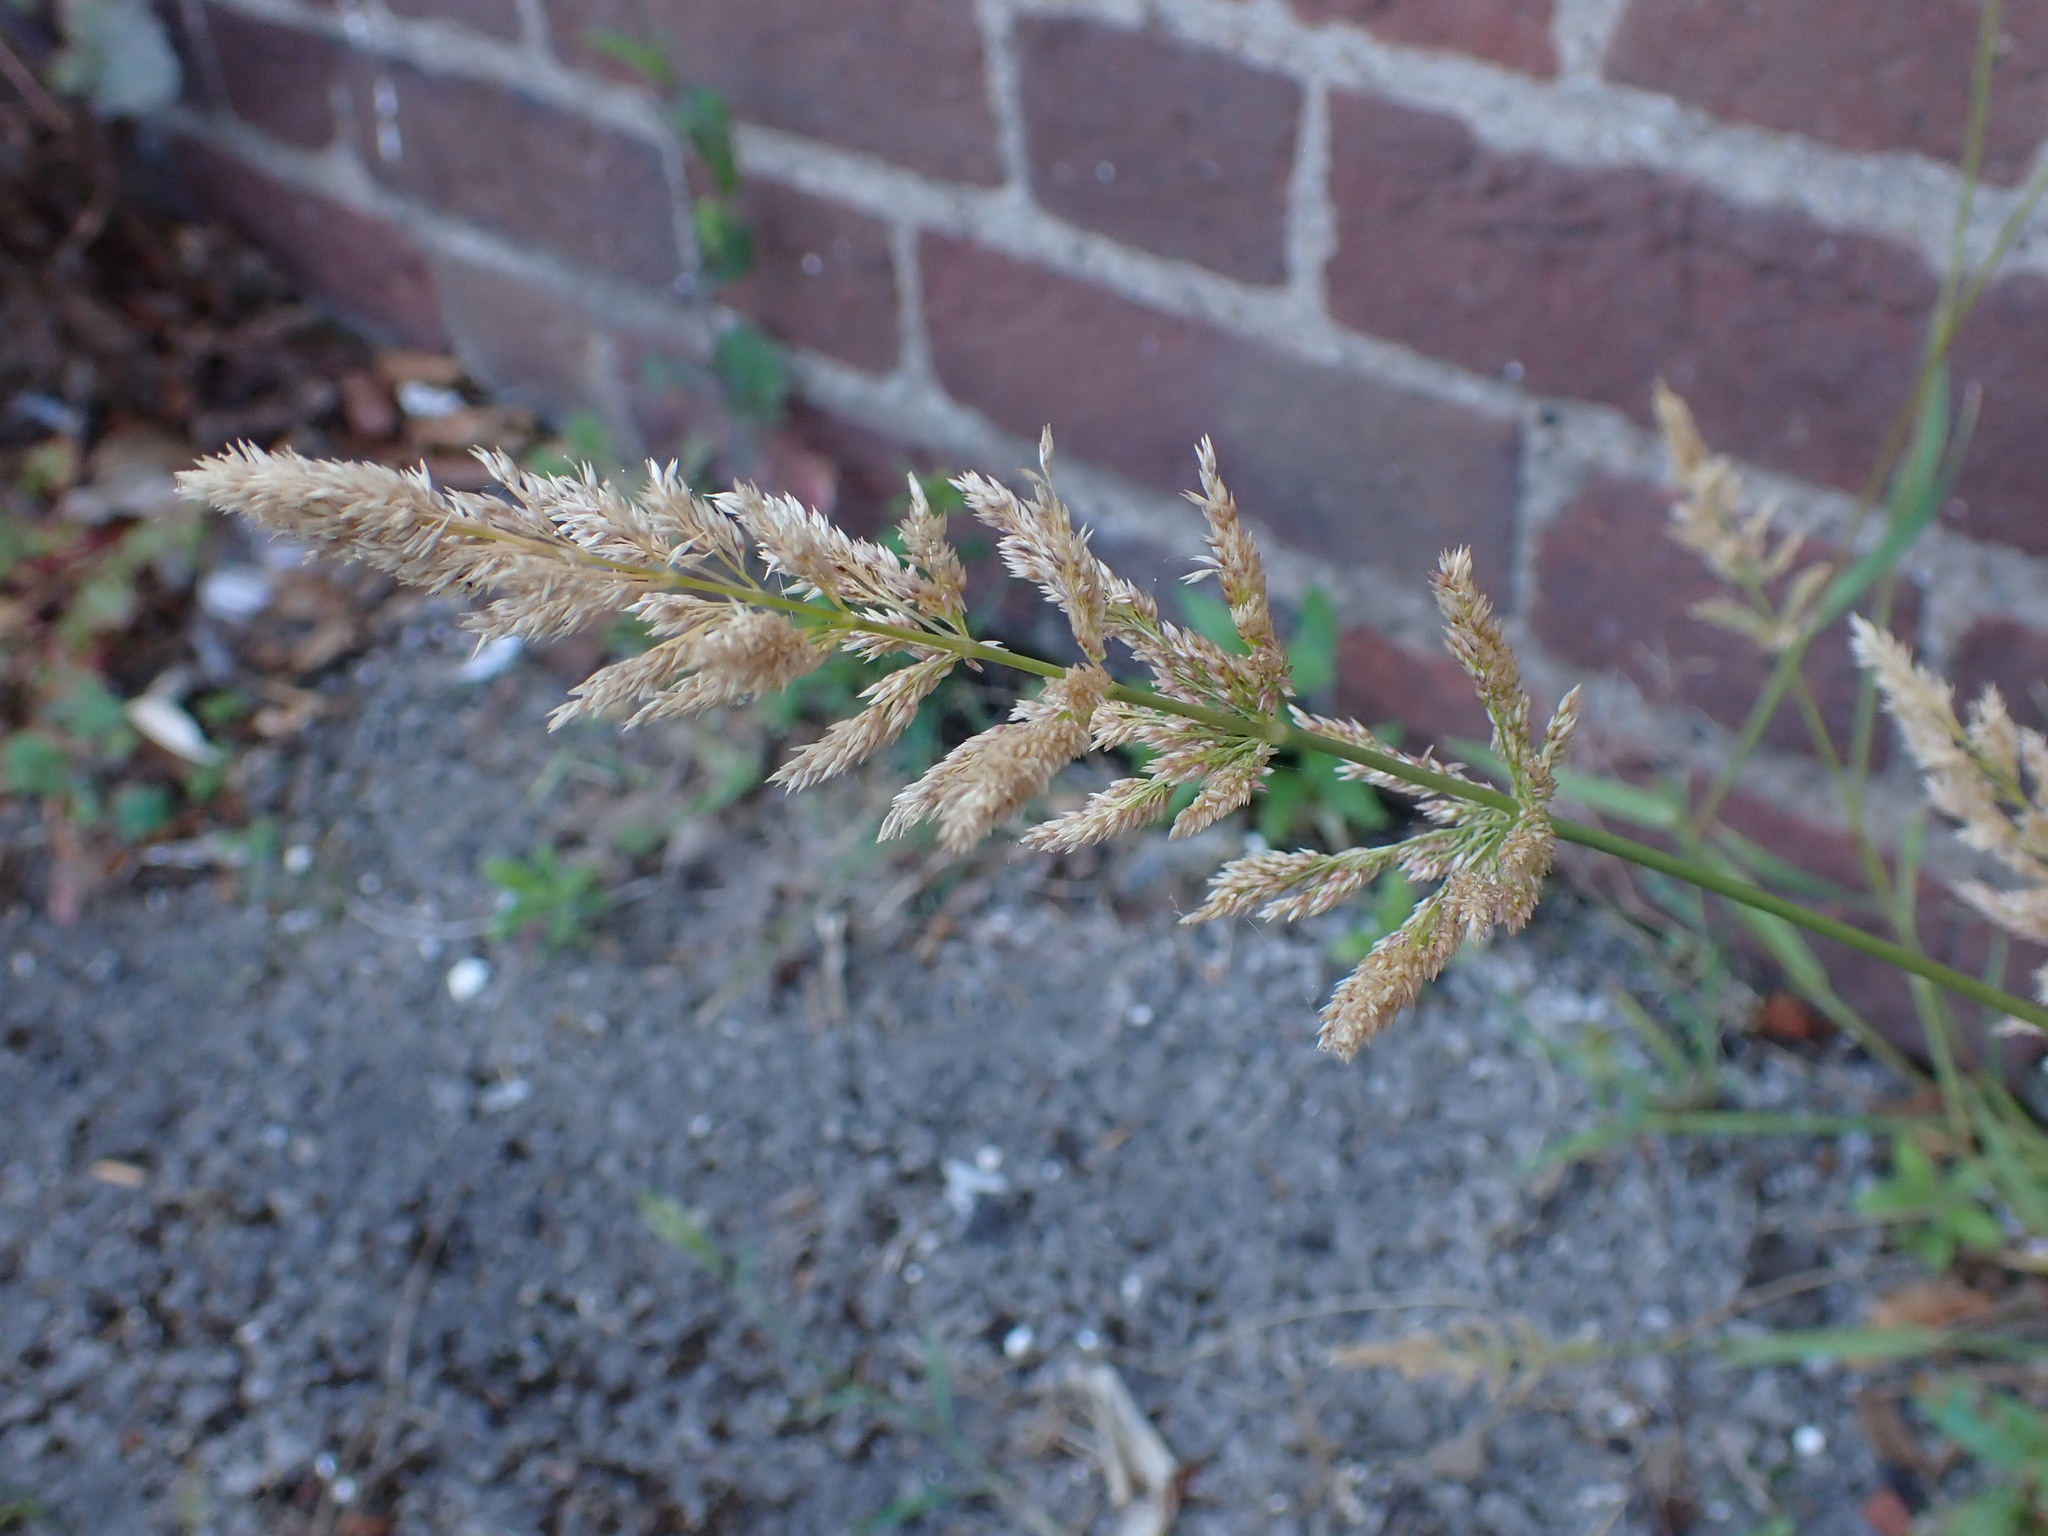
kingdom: Plantae
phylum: Tracheophyta
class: Liliopsida
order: Poales
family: Poaceae
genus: Polypogon
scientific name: Polypogon viridis
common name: Water bent
